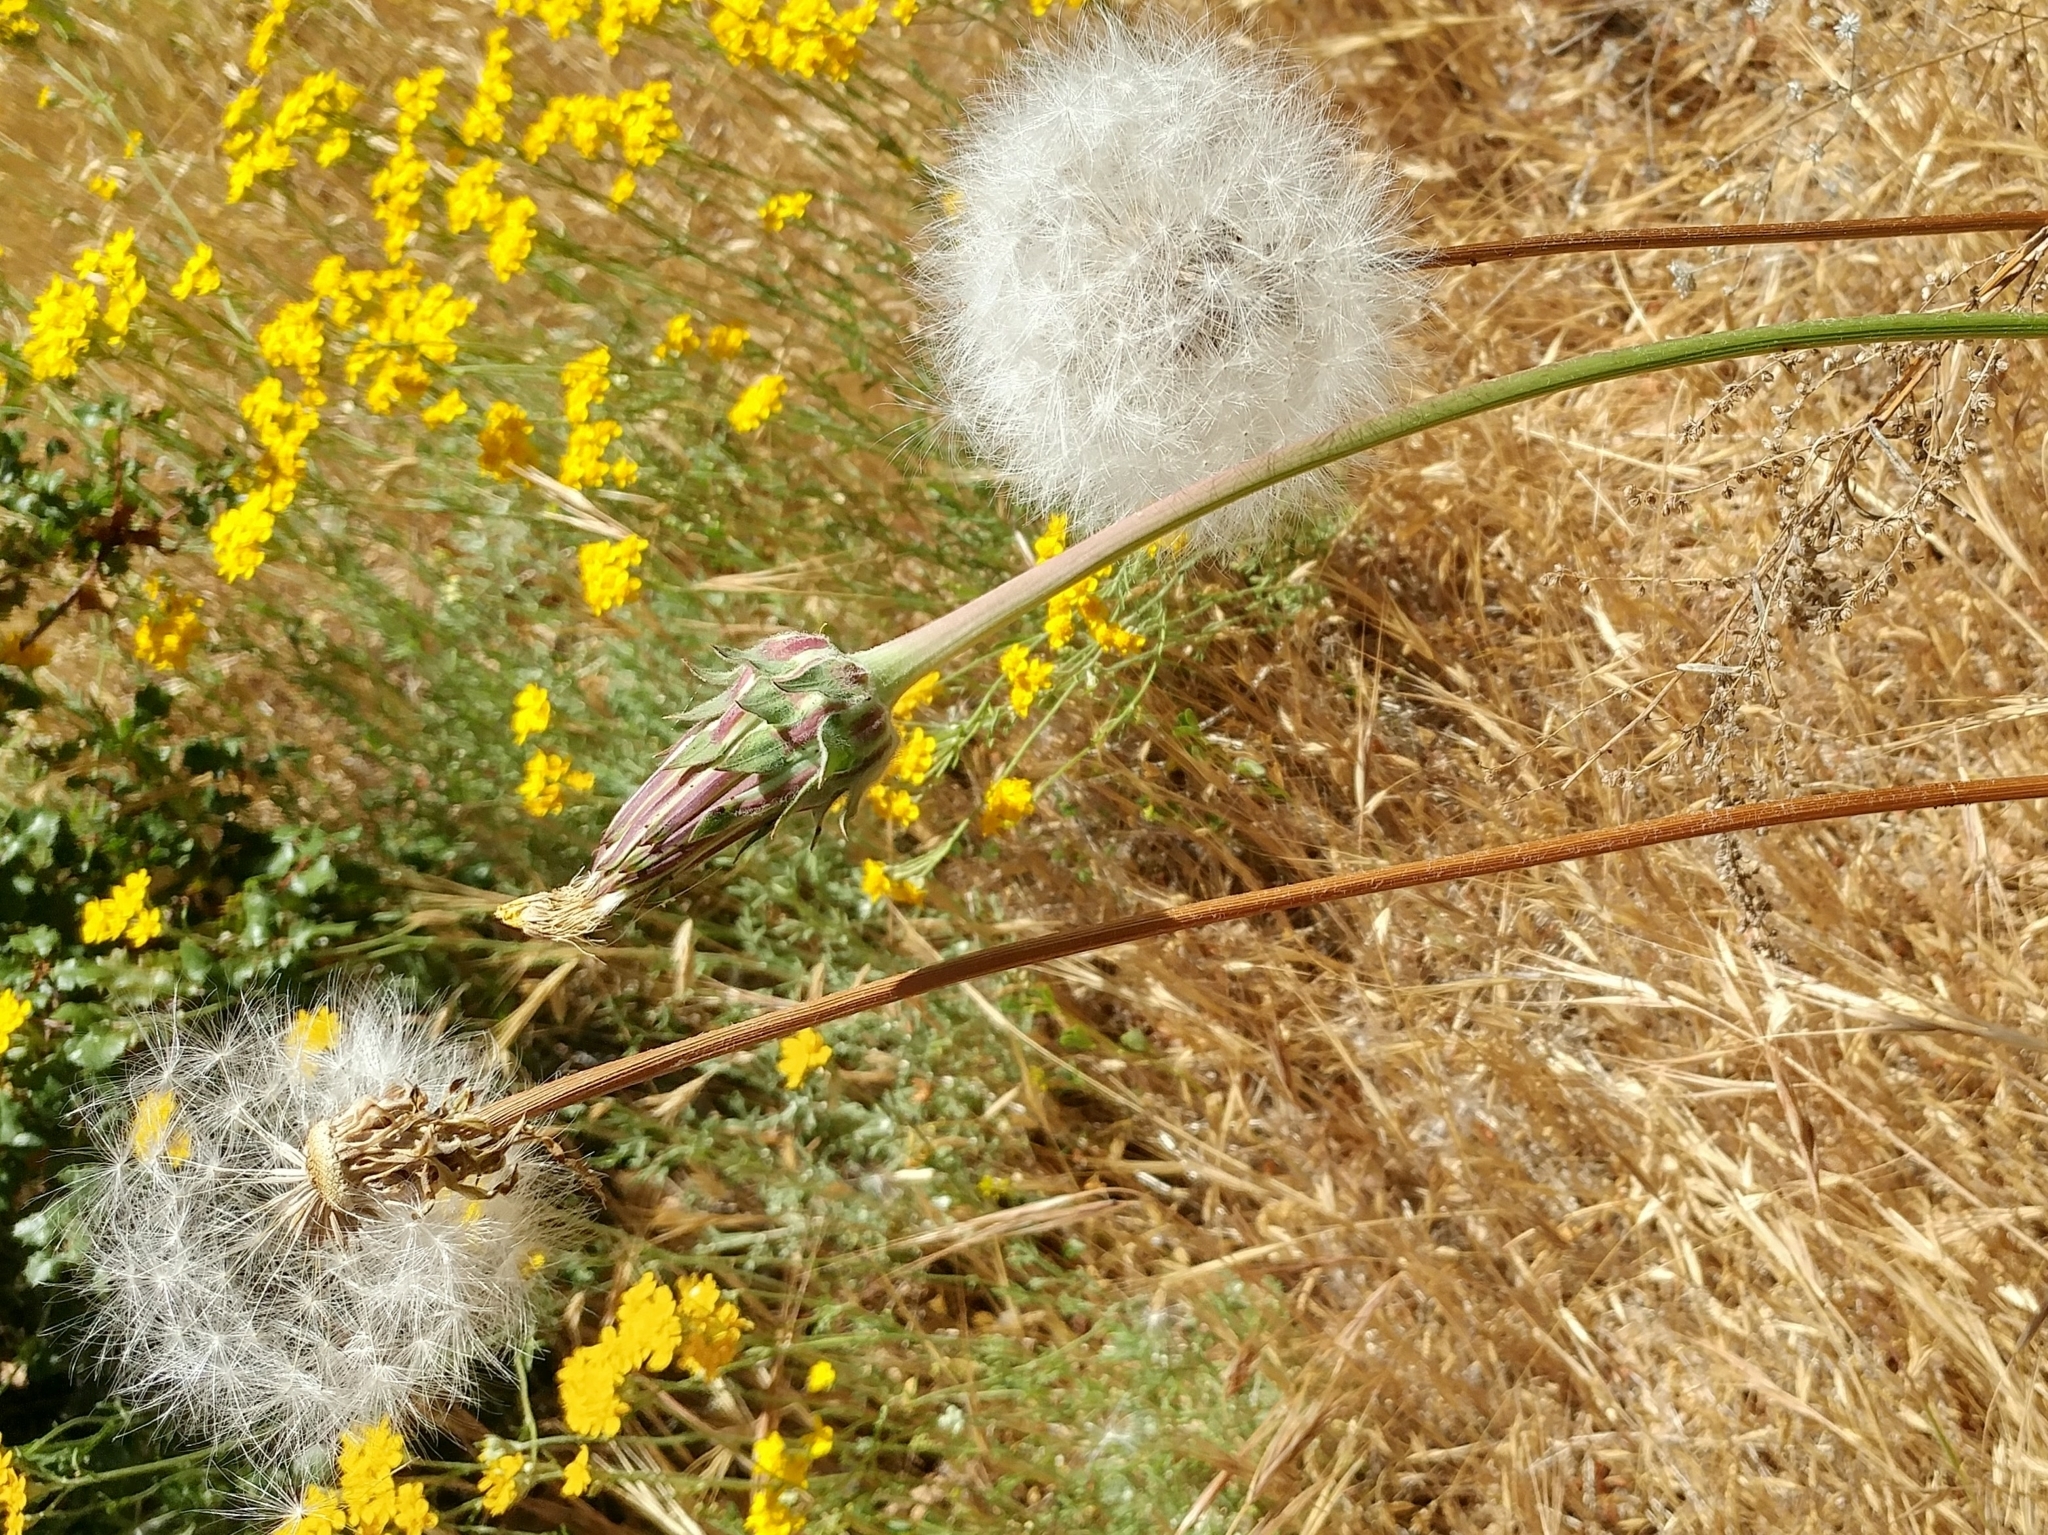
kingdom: Plantae
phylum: Tracheophyta
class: Magnoliopsida
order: Asterales
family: Asteraceae
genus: Agoseris
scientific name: Agoseris grandiflora
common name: Grassland agoseris
